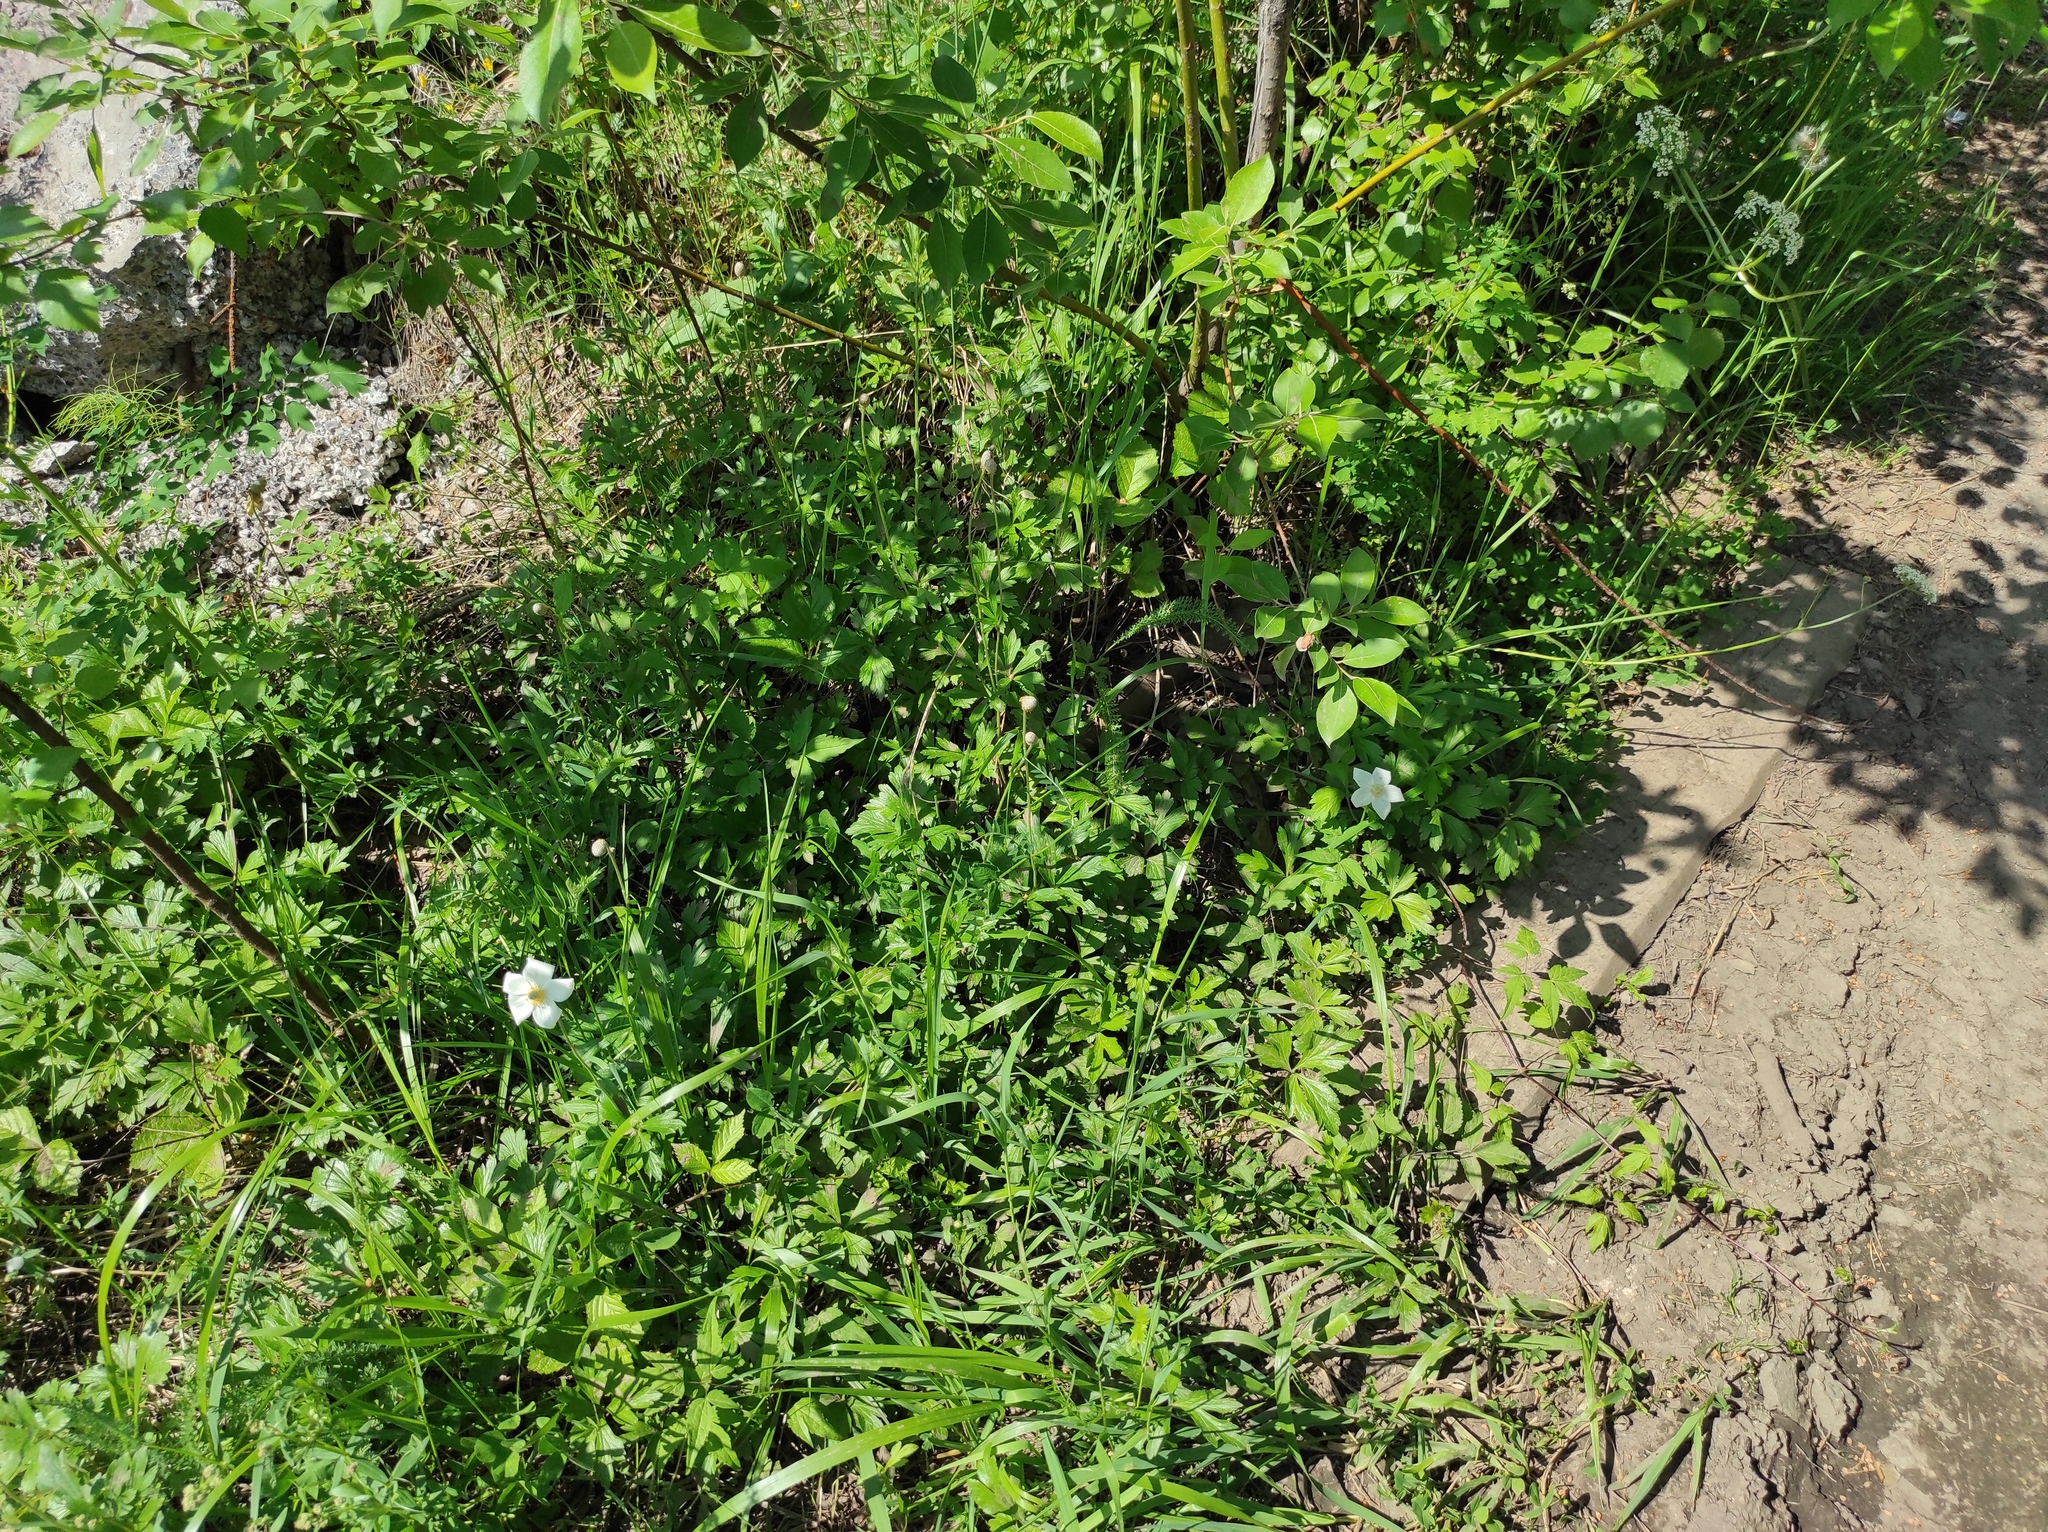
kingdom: Plantae
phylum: Tracheophyta
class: Magnoliopsida
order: Ranunculales
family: Ranunculaceae
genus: Anemone
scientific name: Anemone sylvestris
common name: Snowdrop anemone
